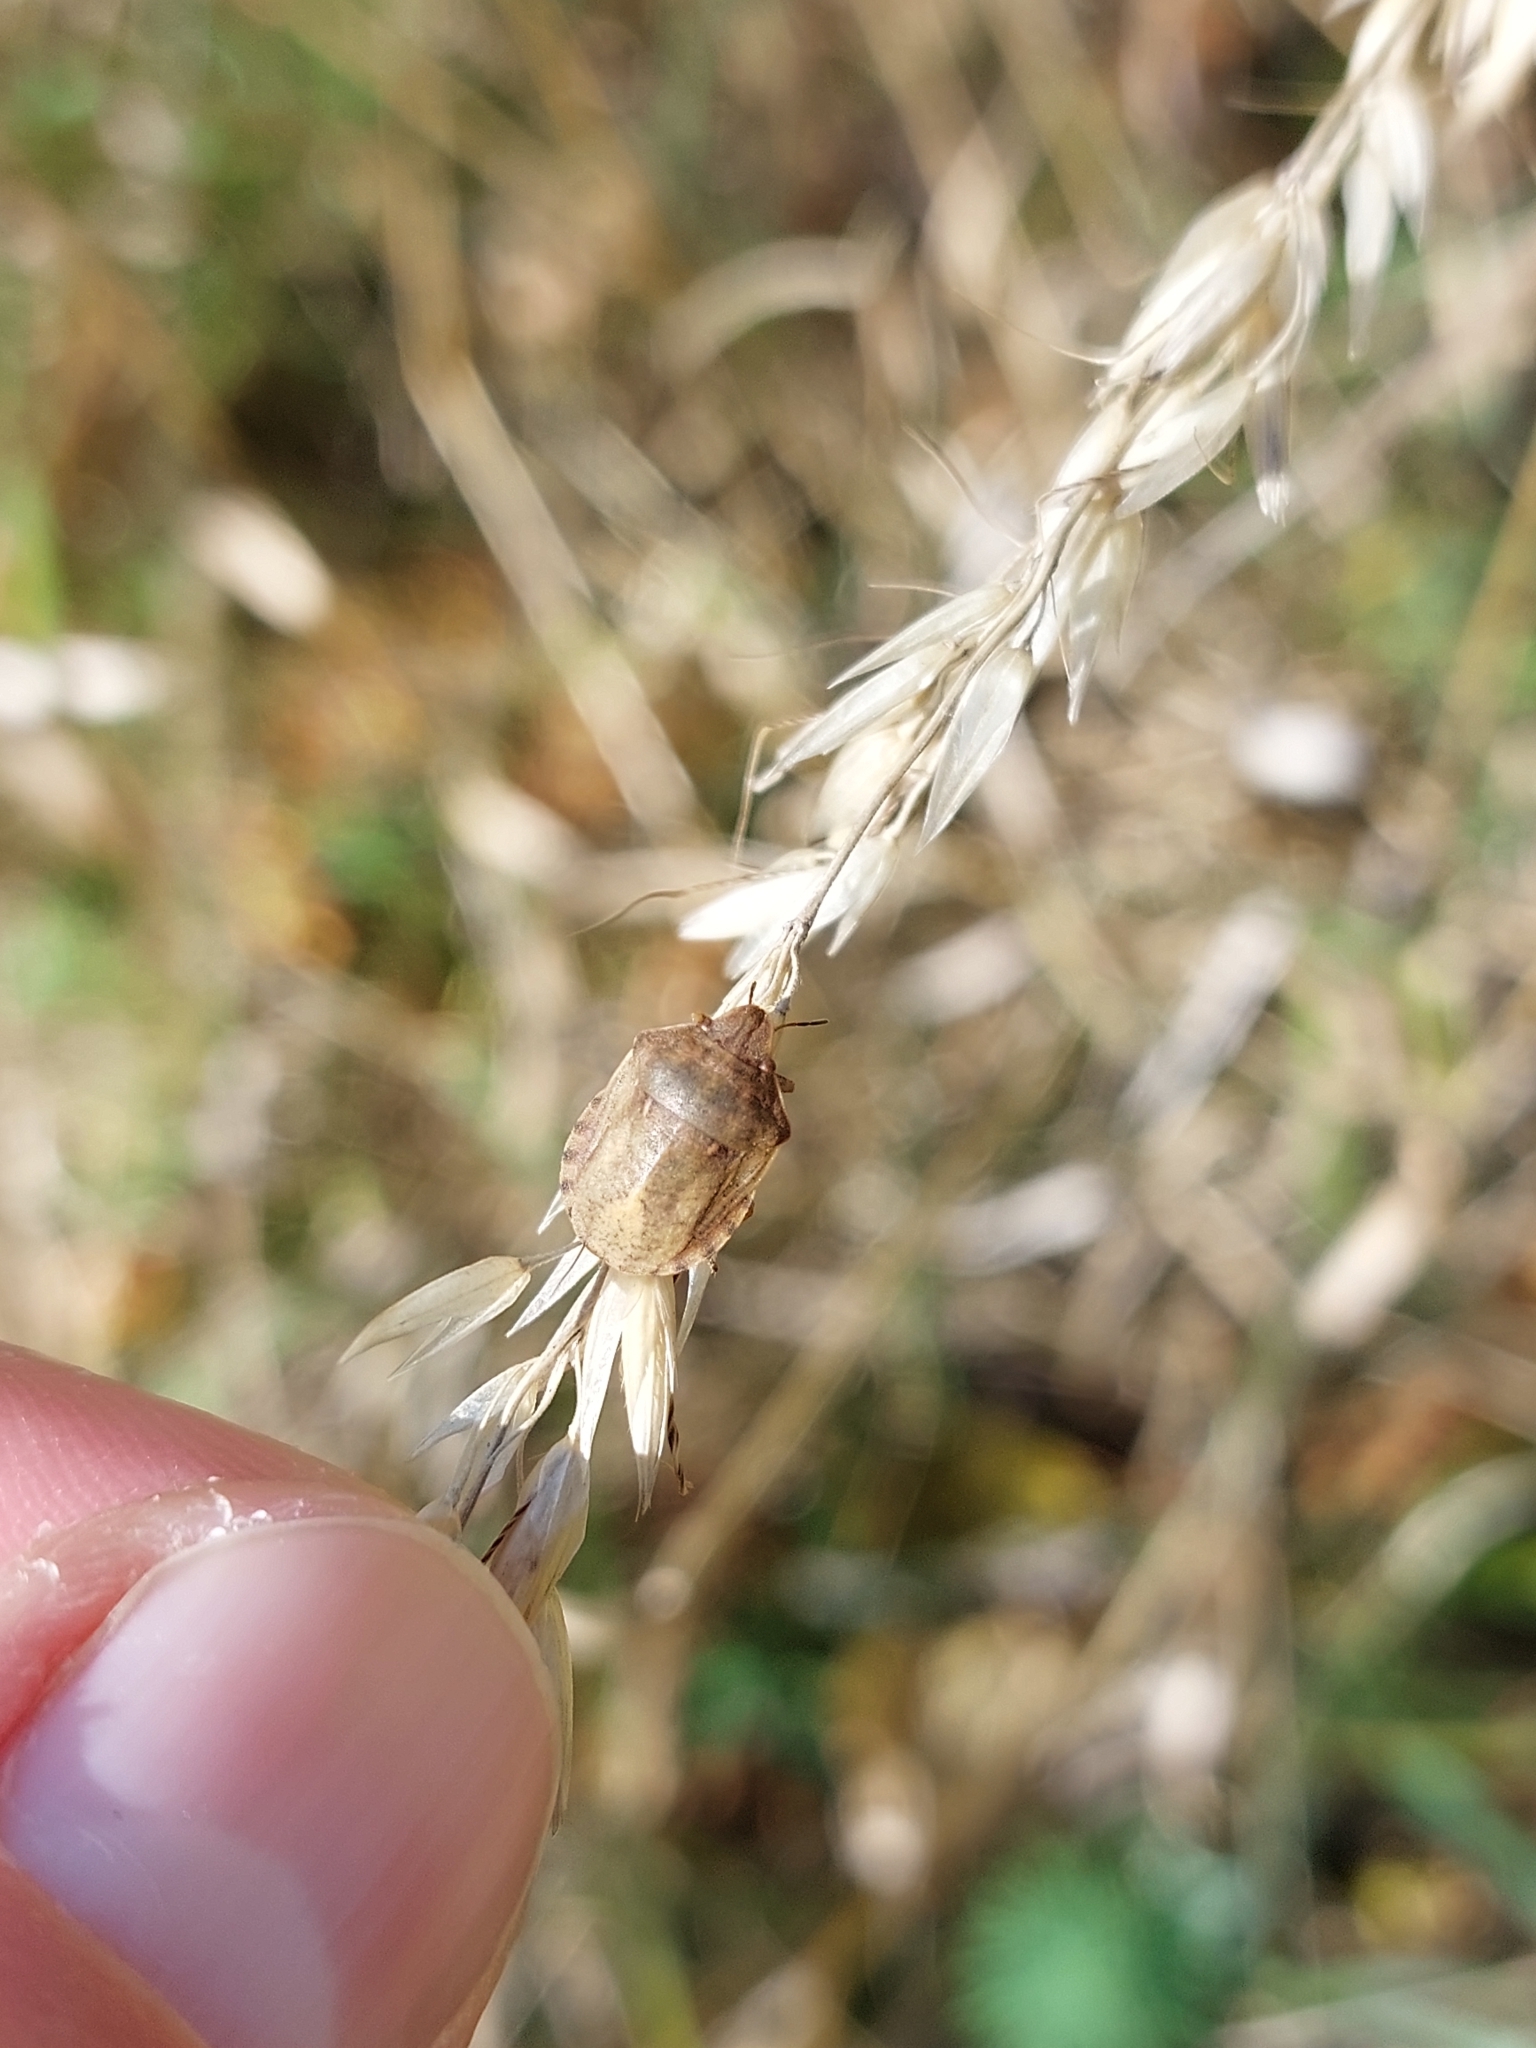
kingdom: Animalia
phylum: Arthropoda
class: Insecta
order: Hemiptera
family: Scutelleridae
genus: Eurygaster
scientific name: Eurygaster testudinaria
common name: Tortoise bug
